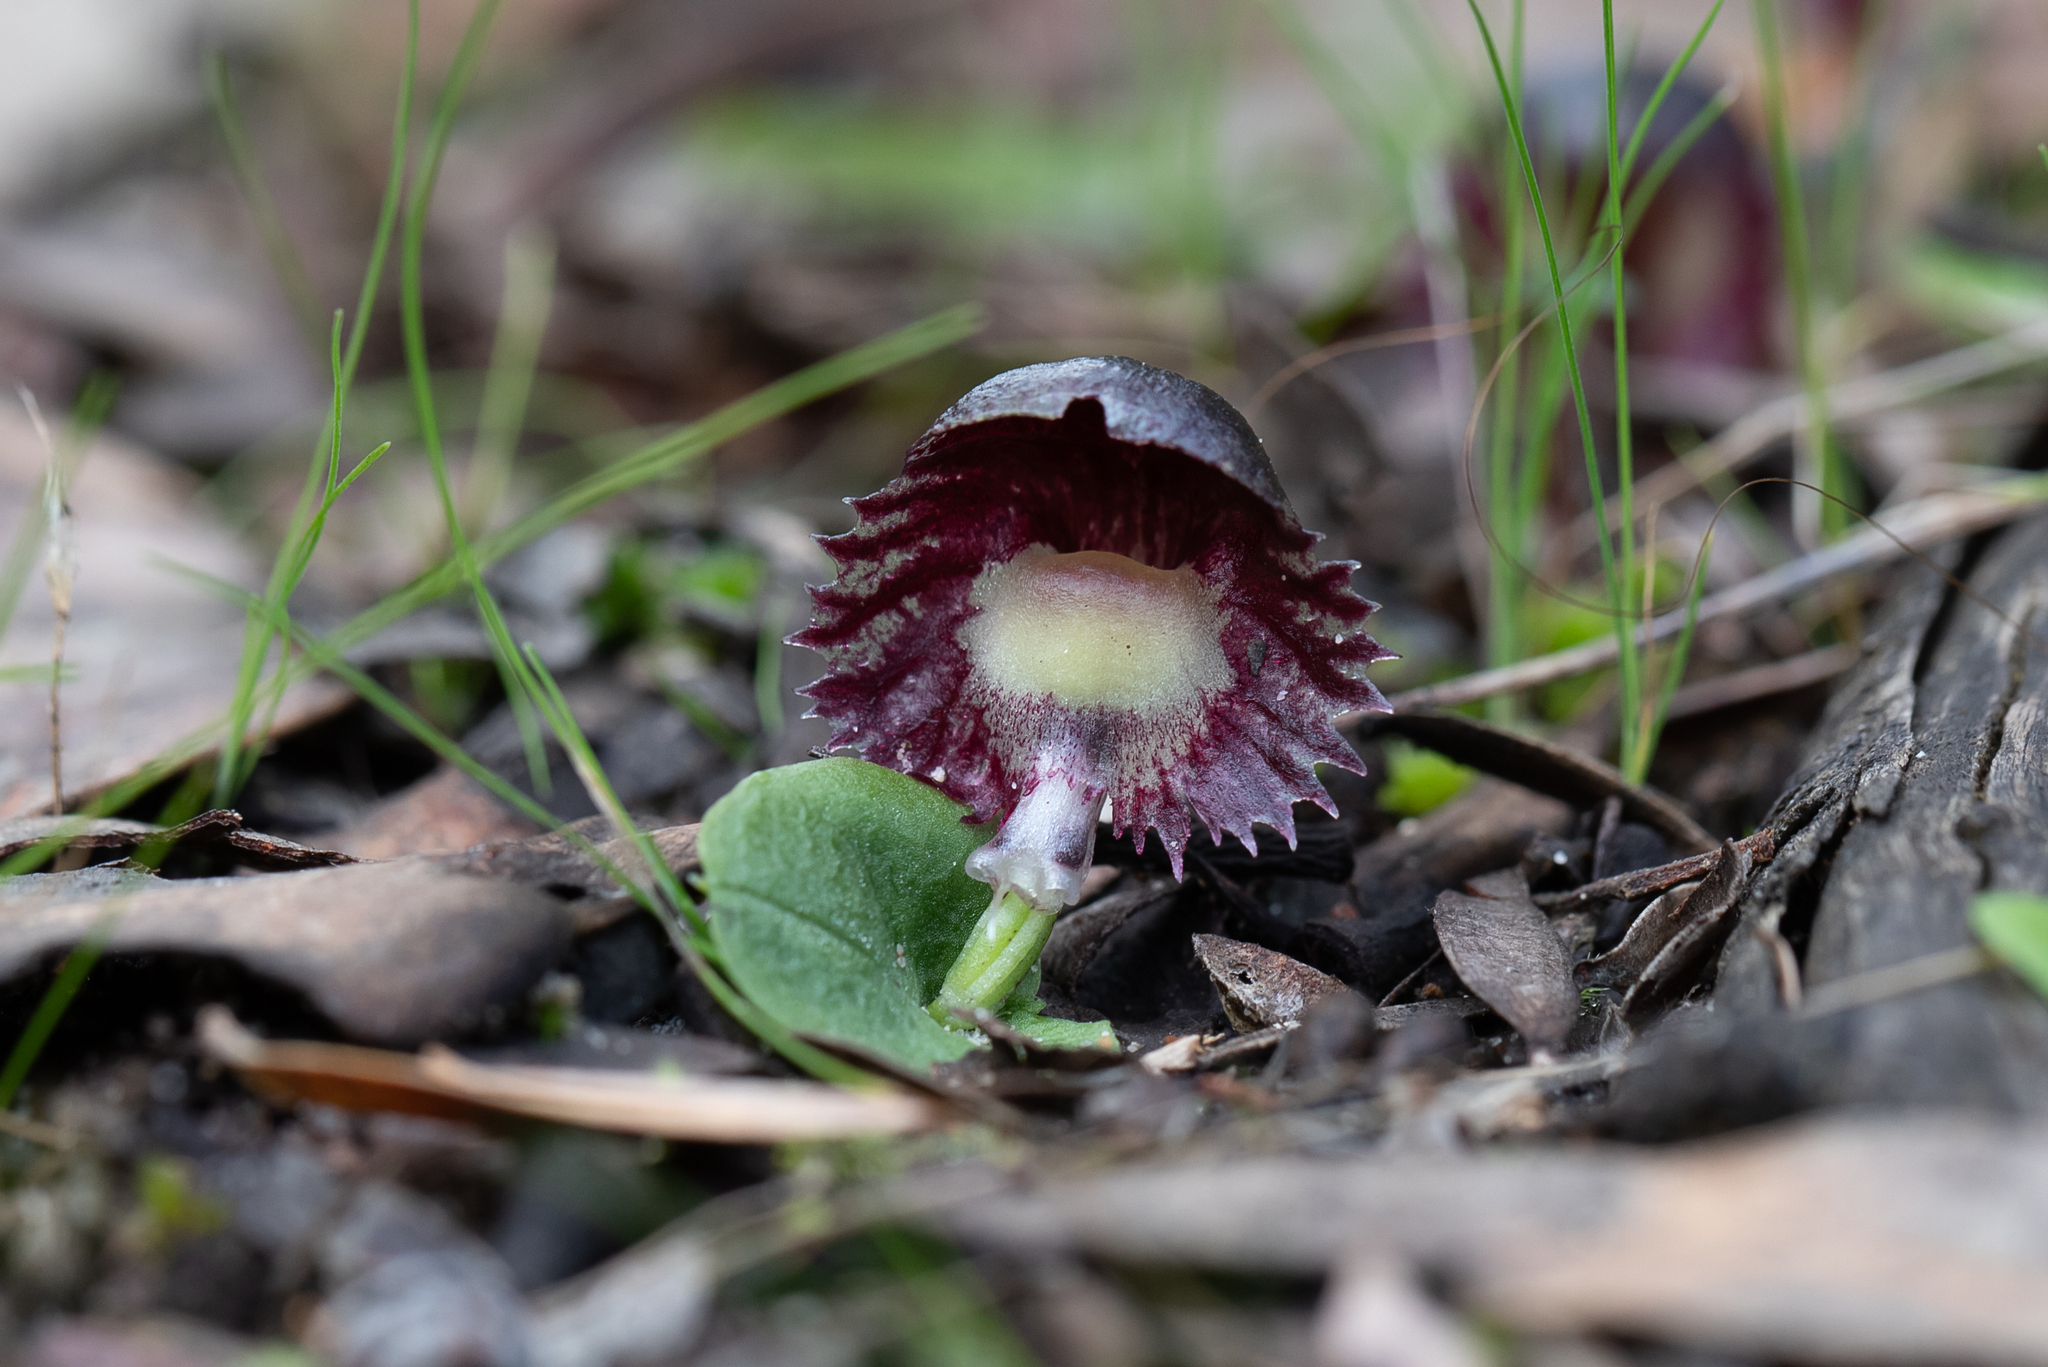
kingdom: Plantae
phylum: Tracheophyta
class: Liliopsida
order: Asparagales
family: Orchidaceae
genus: Corybas
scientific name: Corybas diemenicus
